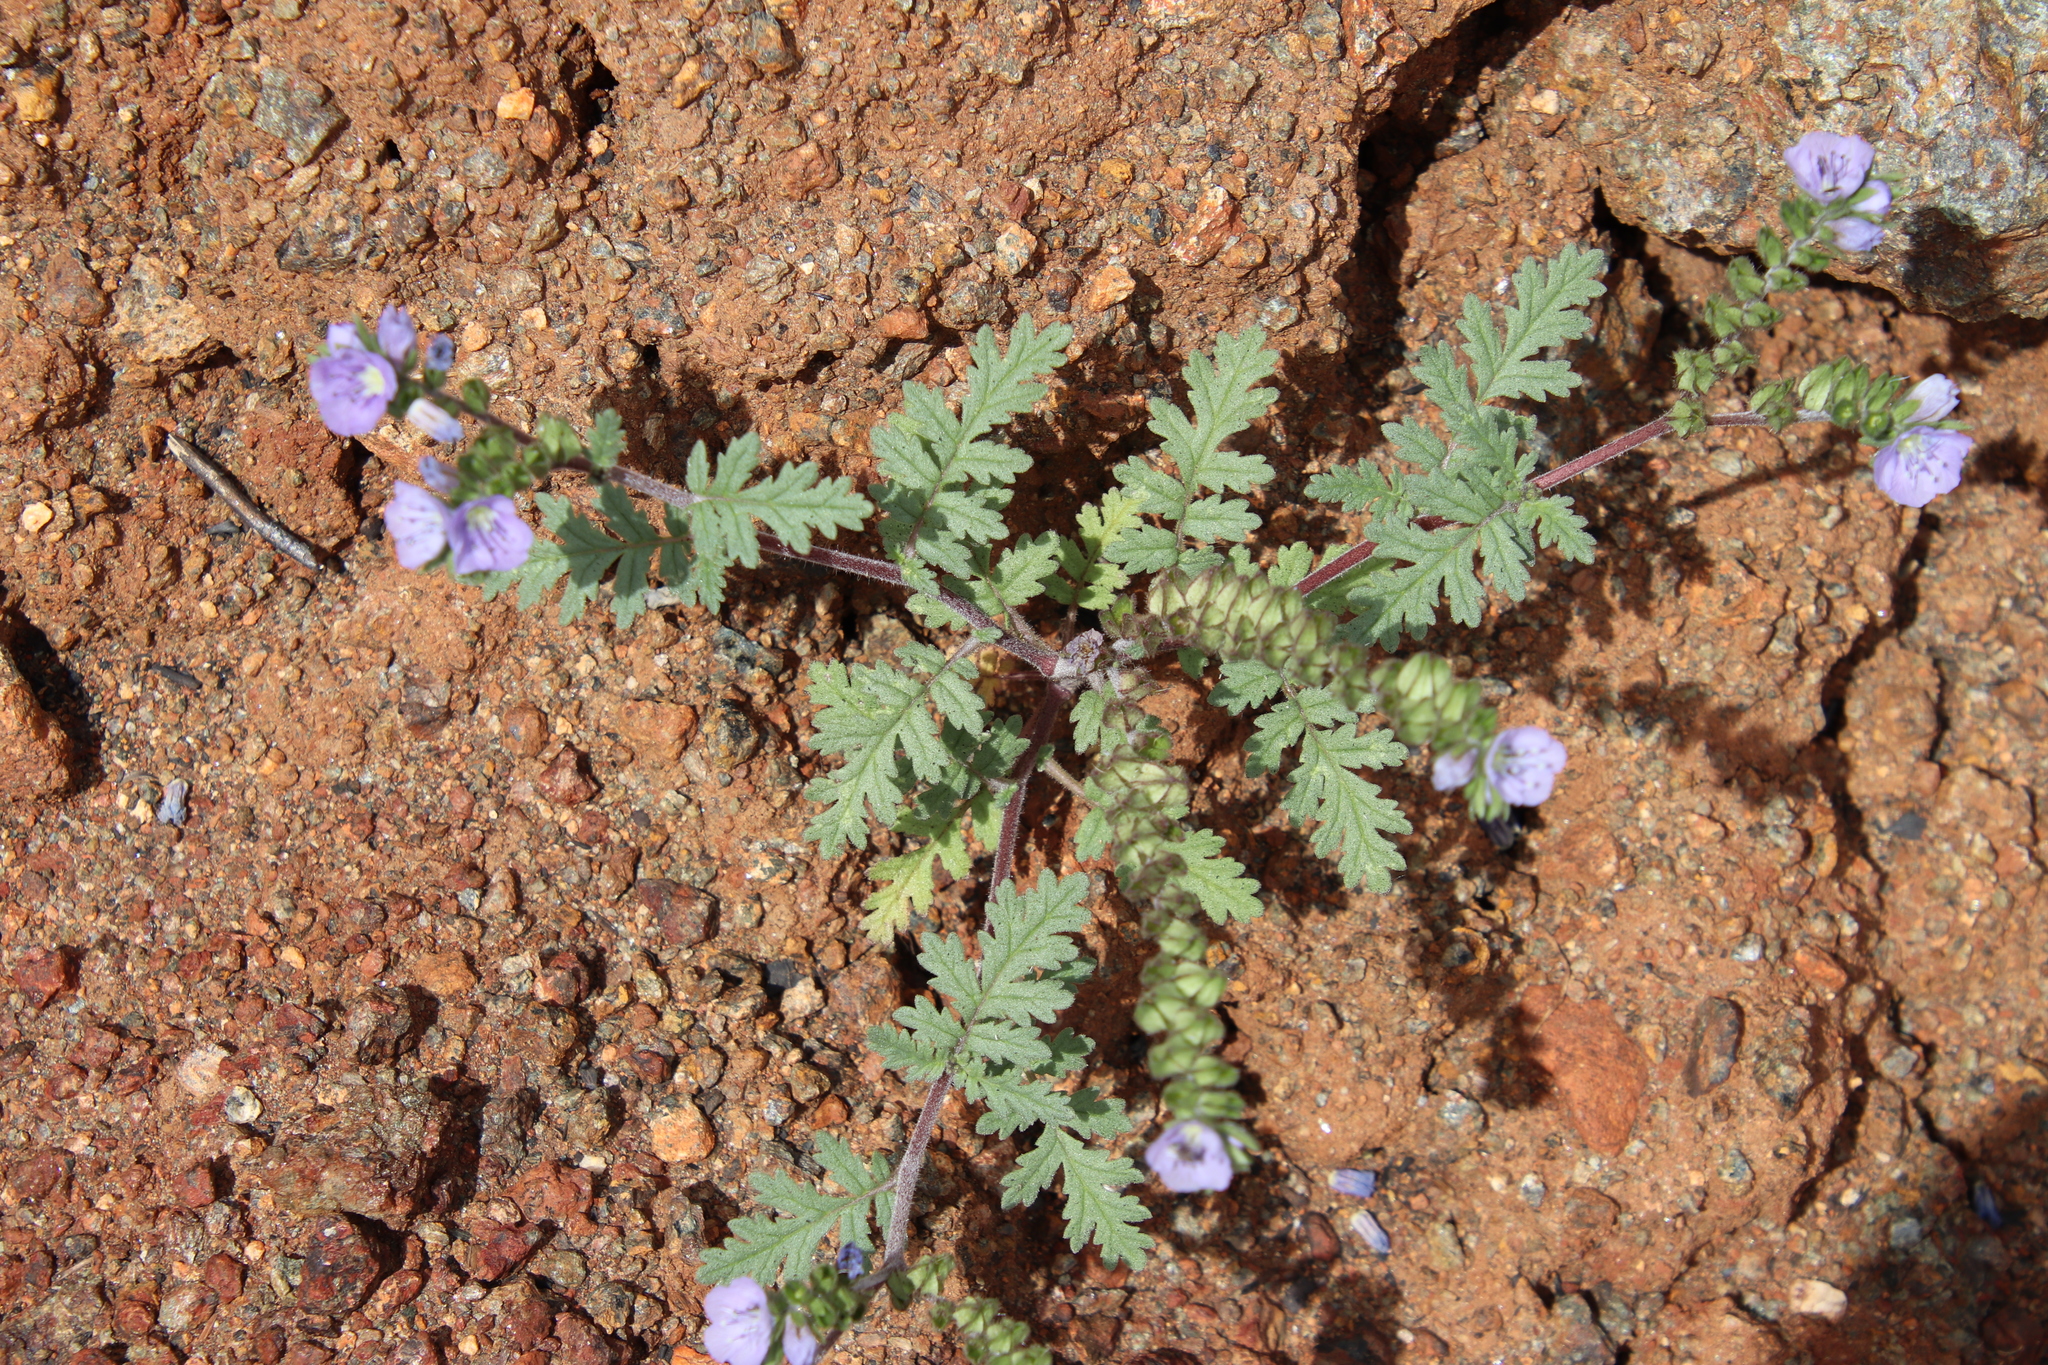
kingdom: Plantae
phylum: Tracheophyta
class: Magnoliopsida
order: Boraginales
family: Hydrophyllaceae
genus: Phacelia
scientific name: Phacelia ciliata
